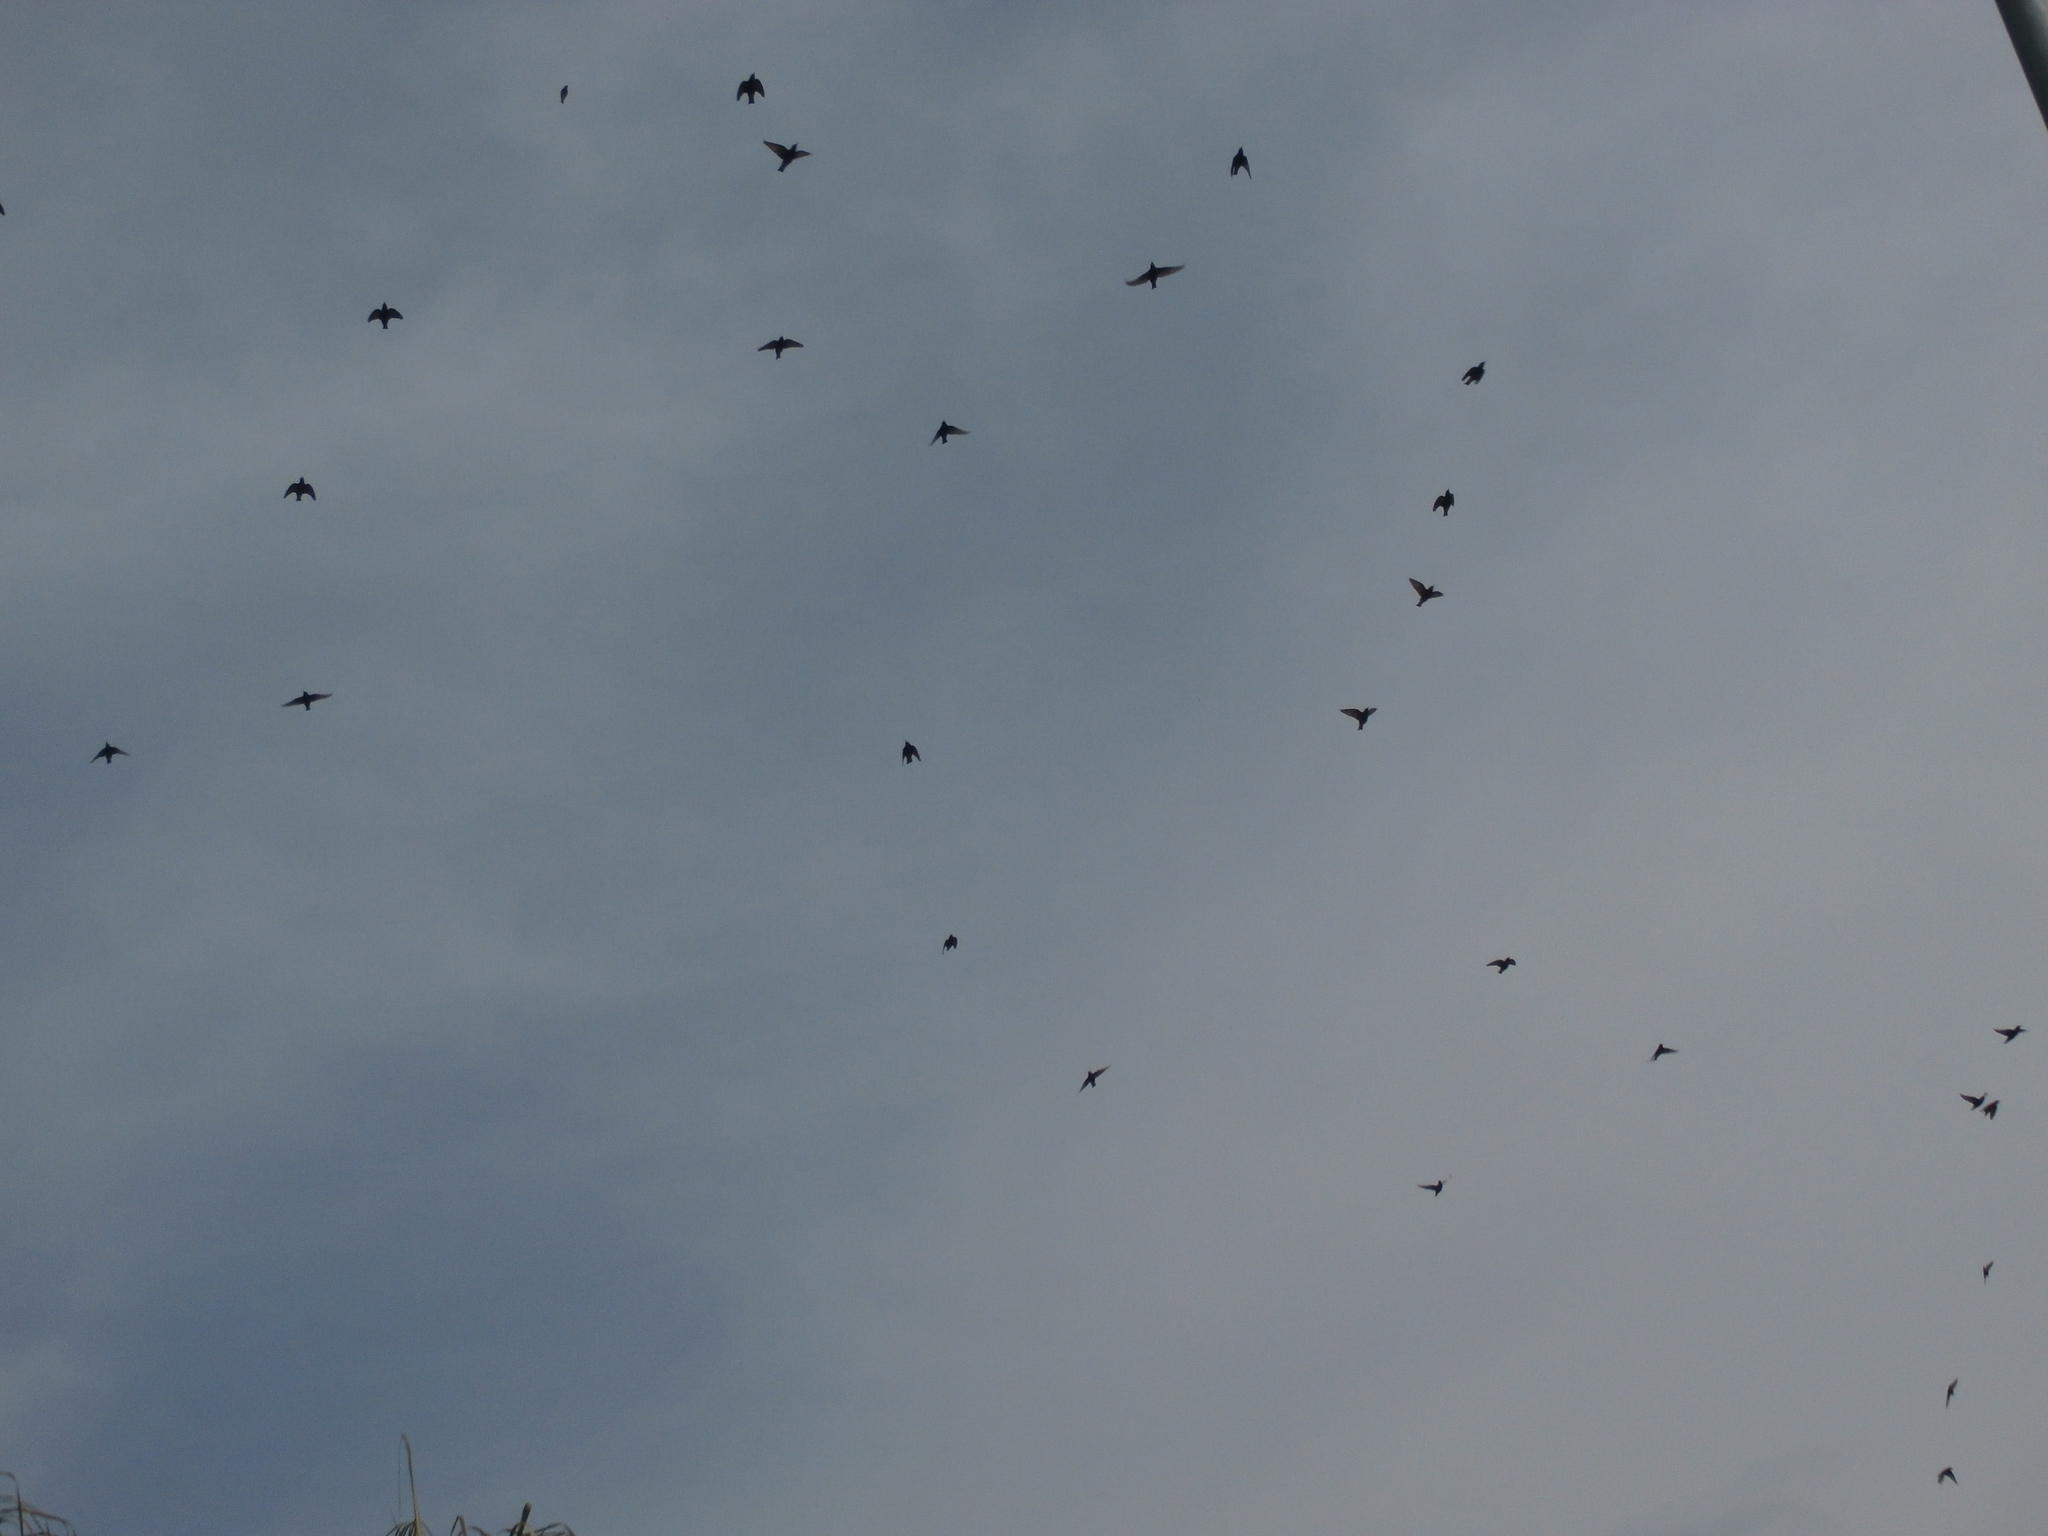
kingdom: Animalia
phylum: Chordata
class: Aves
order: Passeriformes
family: Sturnidae
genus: Sturnus
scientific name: Sturnus vulgaris
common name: Common starling
